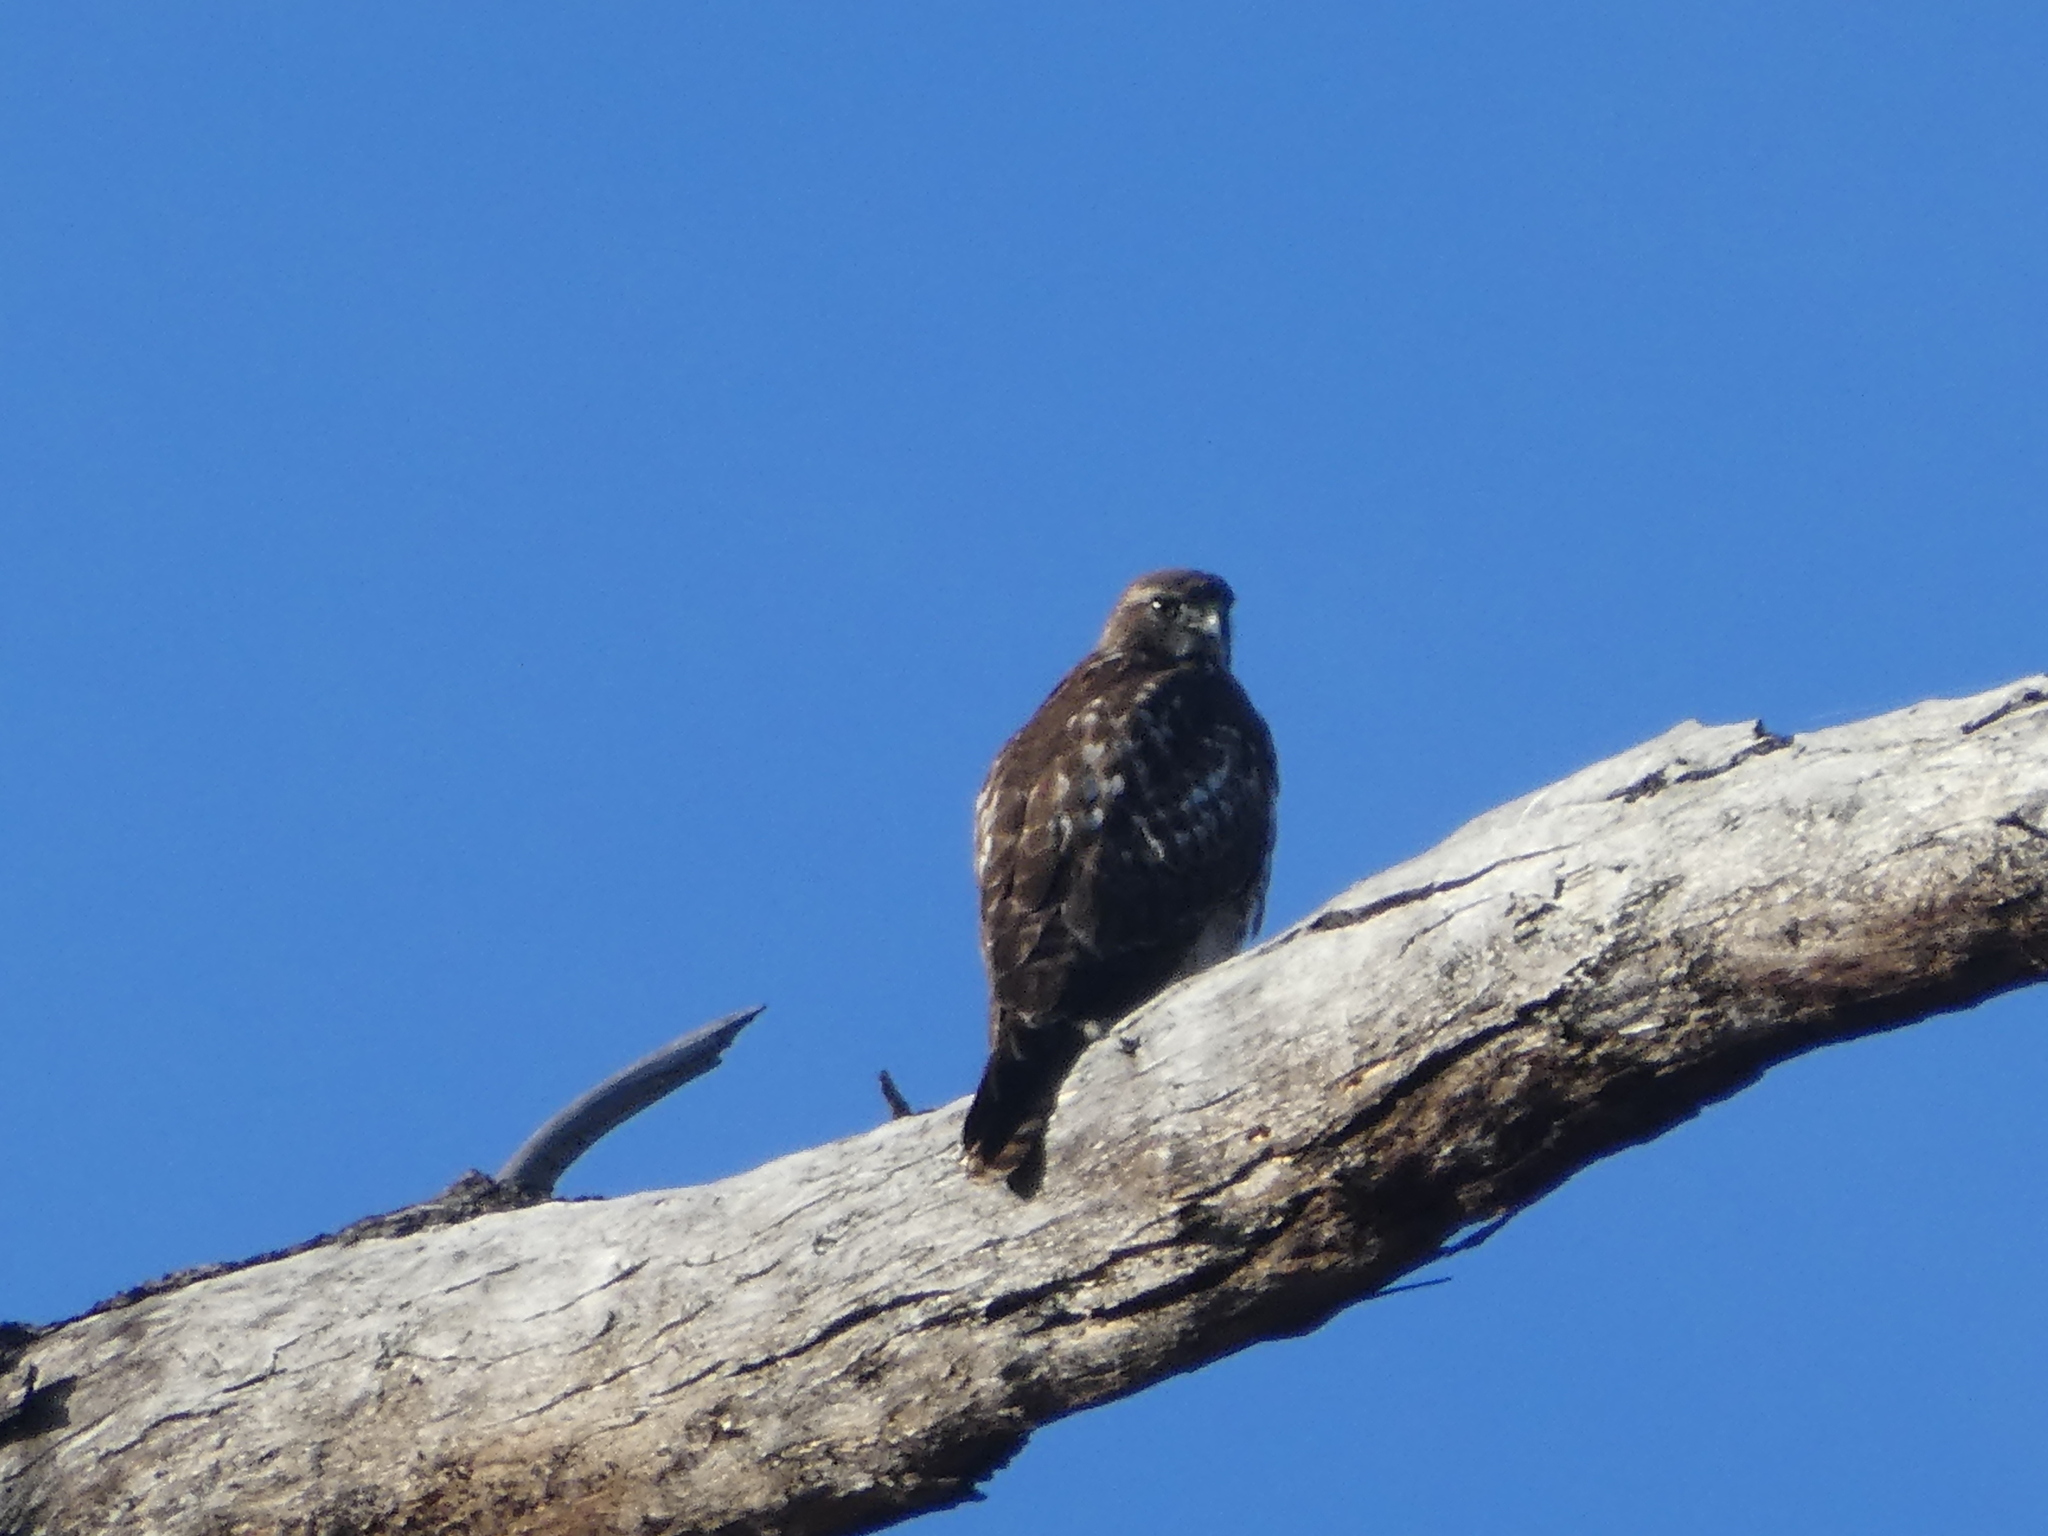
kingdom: Animalia
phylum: Chordata
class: Aves
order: Accipitriformes
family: Accipitridae
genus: Buteo
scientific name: Buteo jamaicensis
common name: Red-tailed hawk
